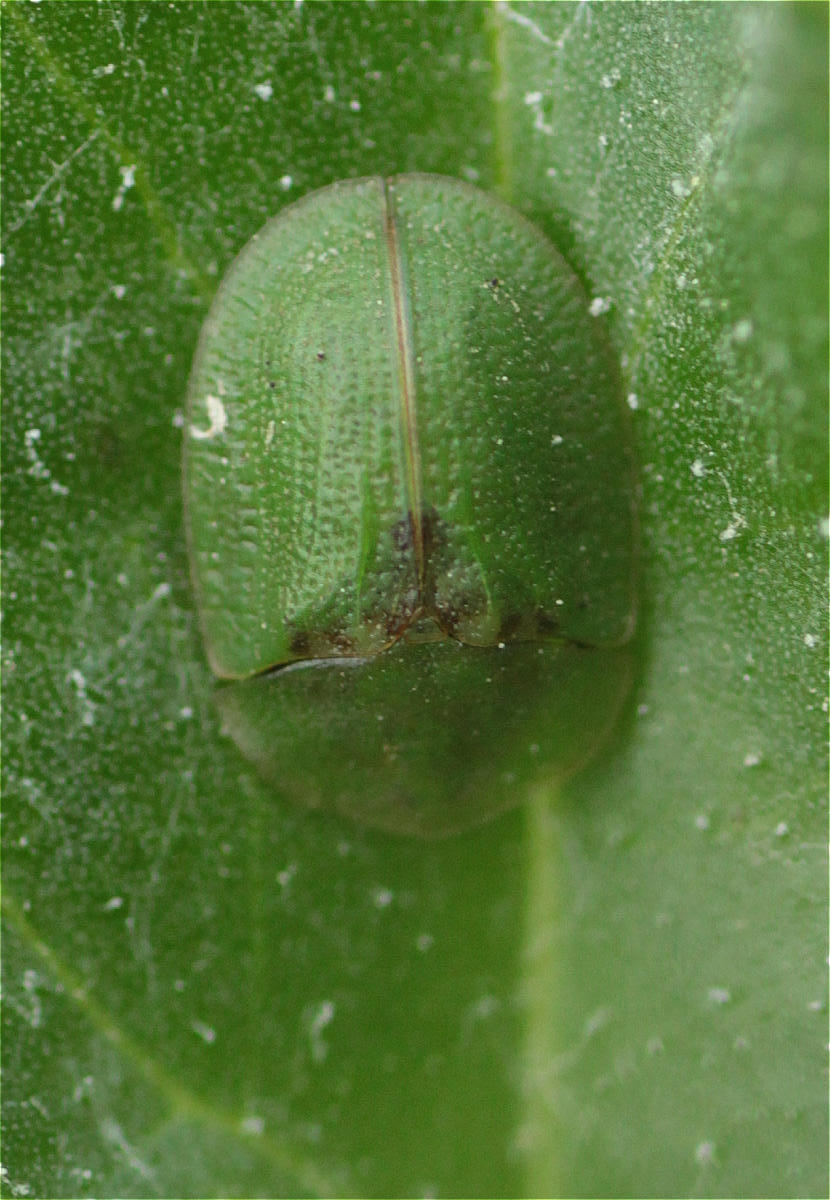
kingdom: Animalia
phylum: Arthropoda
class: Insecta
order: Coleoptera
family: Chrysomelidae
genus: Cassida
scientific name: Cassida rubiginosa
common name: Thistle tortoise beetle
